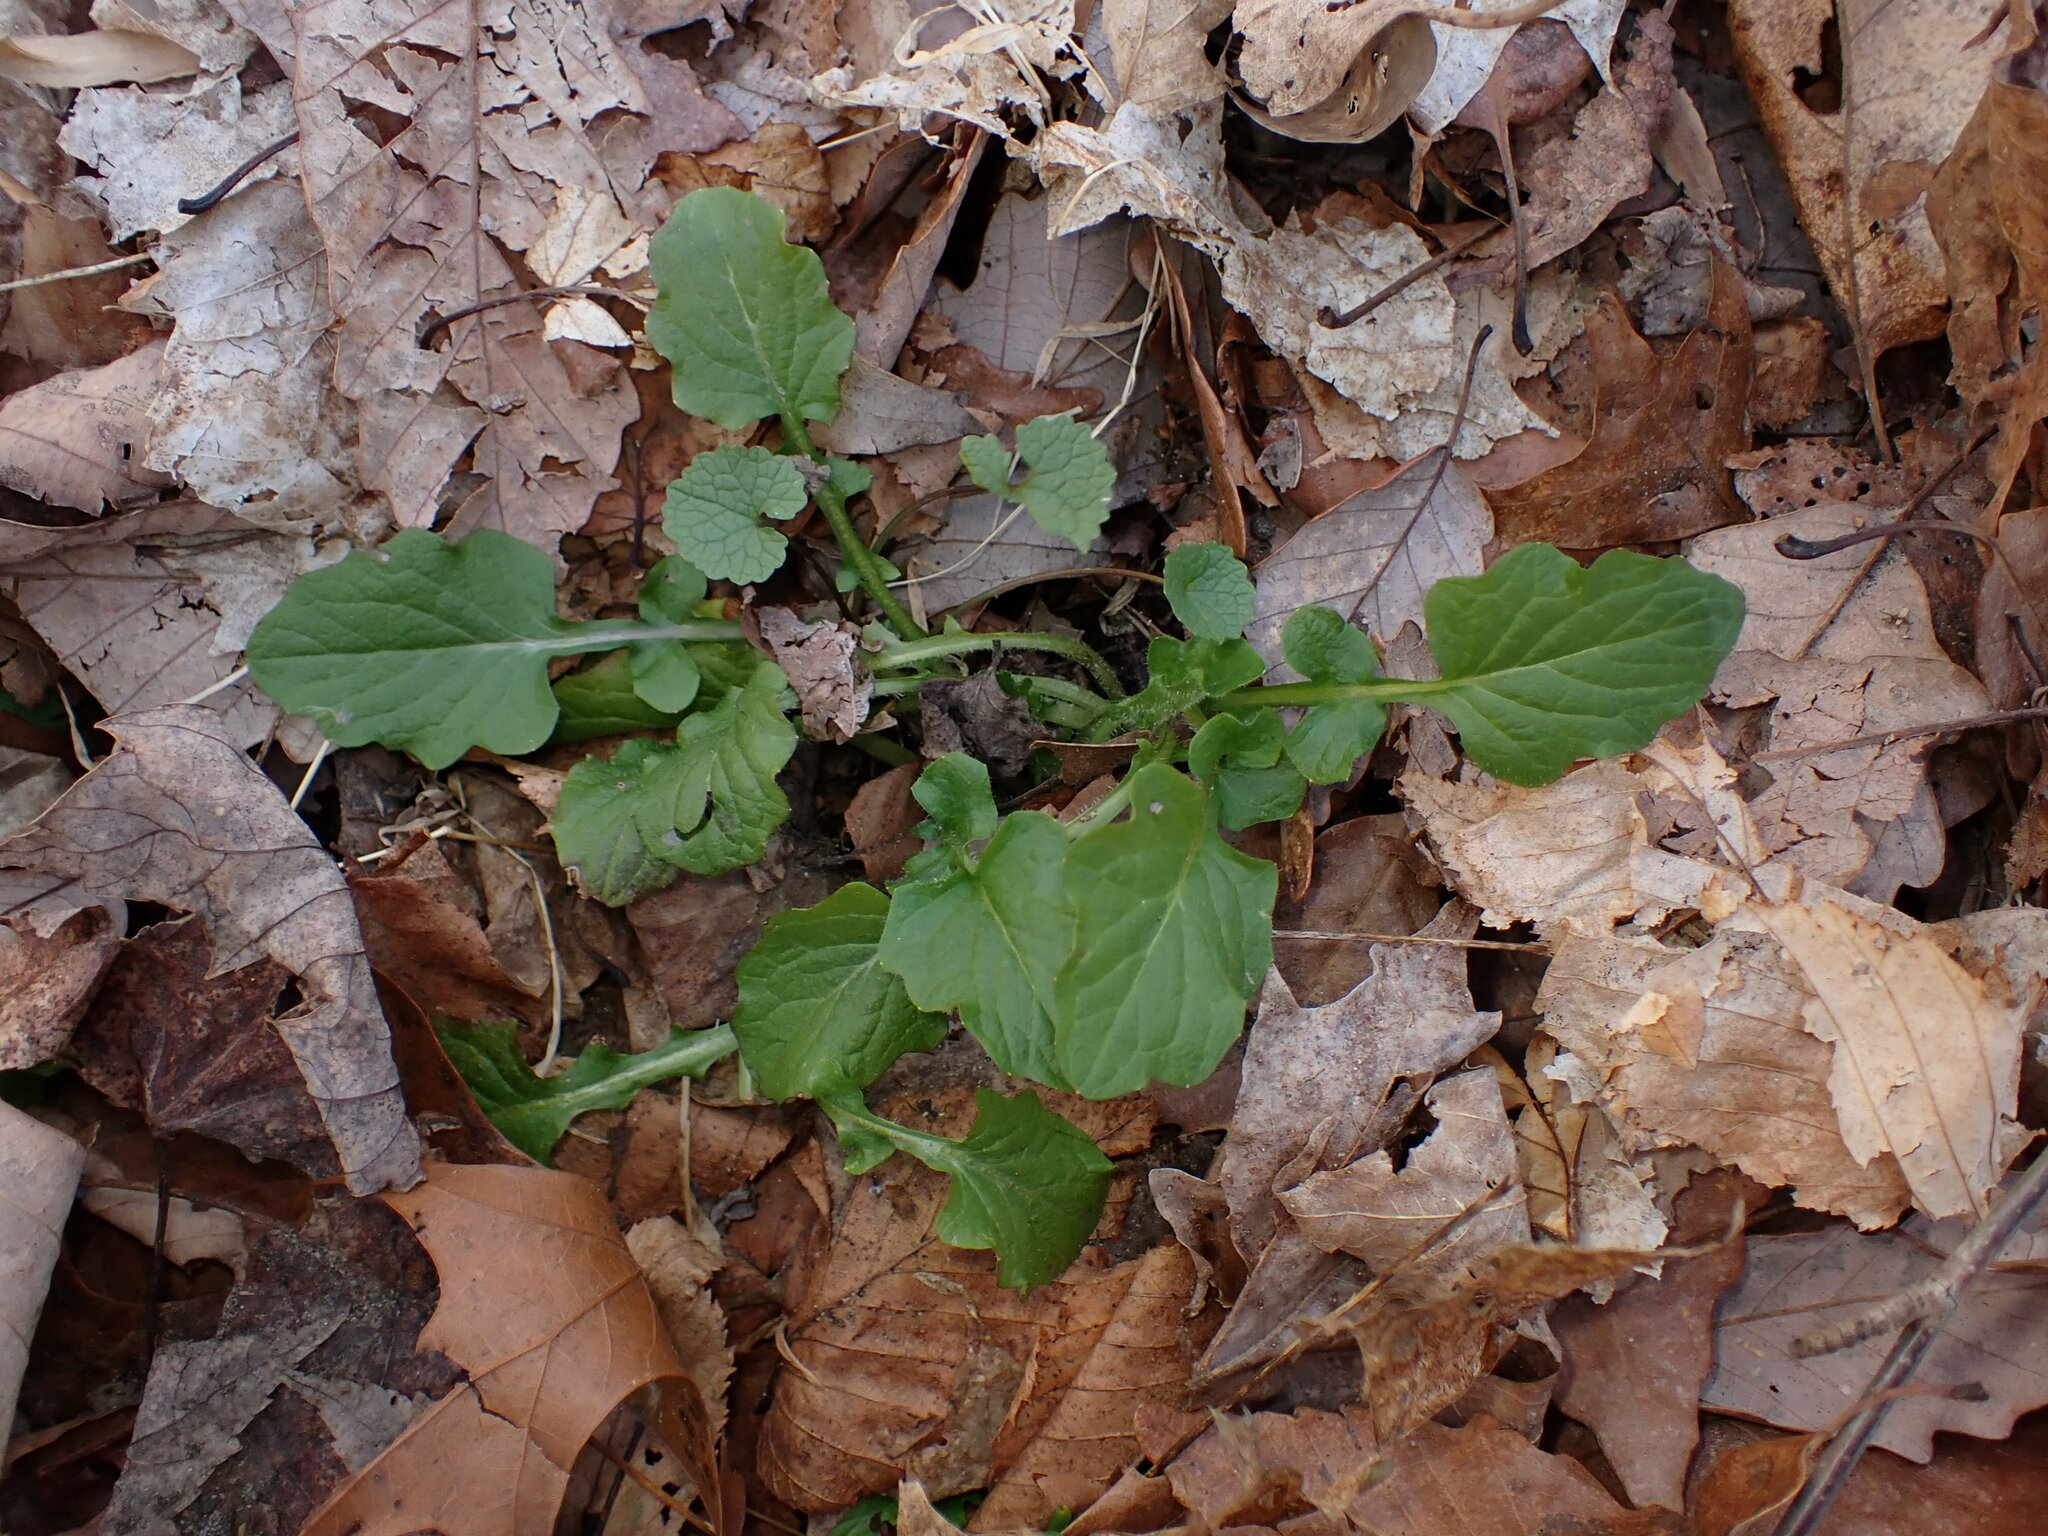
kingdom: Plantae
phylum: Tracheophyta
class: Magnoliopsida
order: Asterales
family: Asteraceae
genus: Lapsana
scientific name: Lapsana communis
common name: Nipplewort
